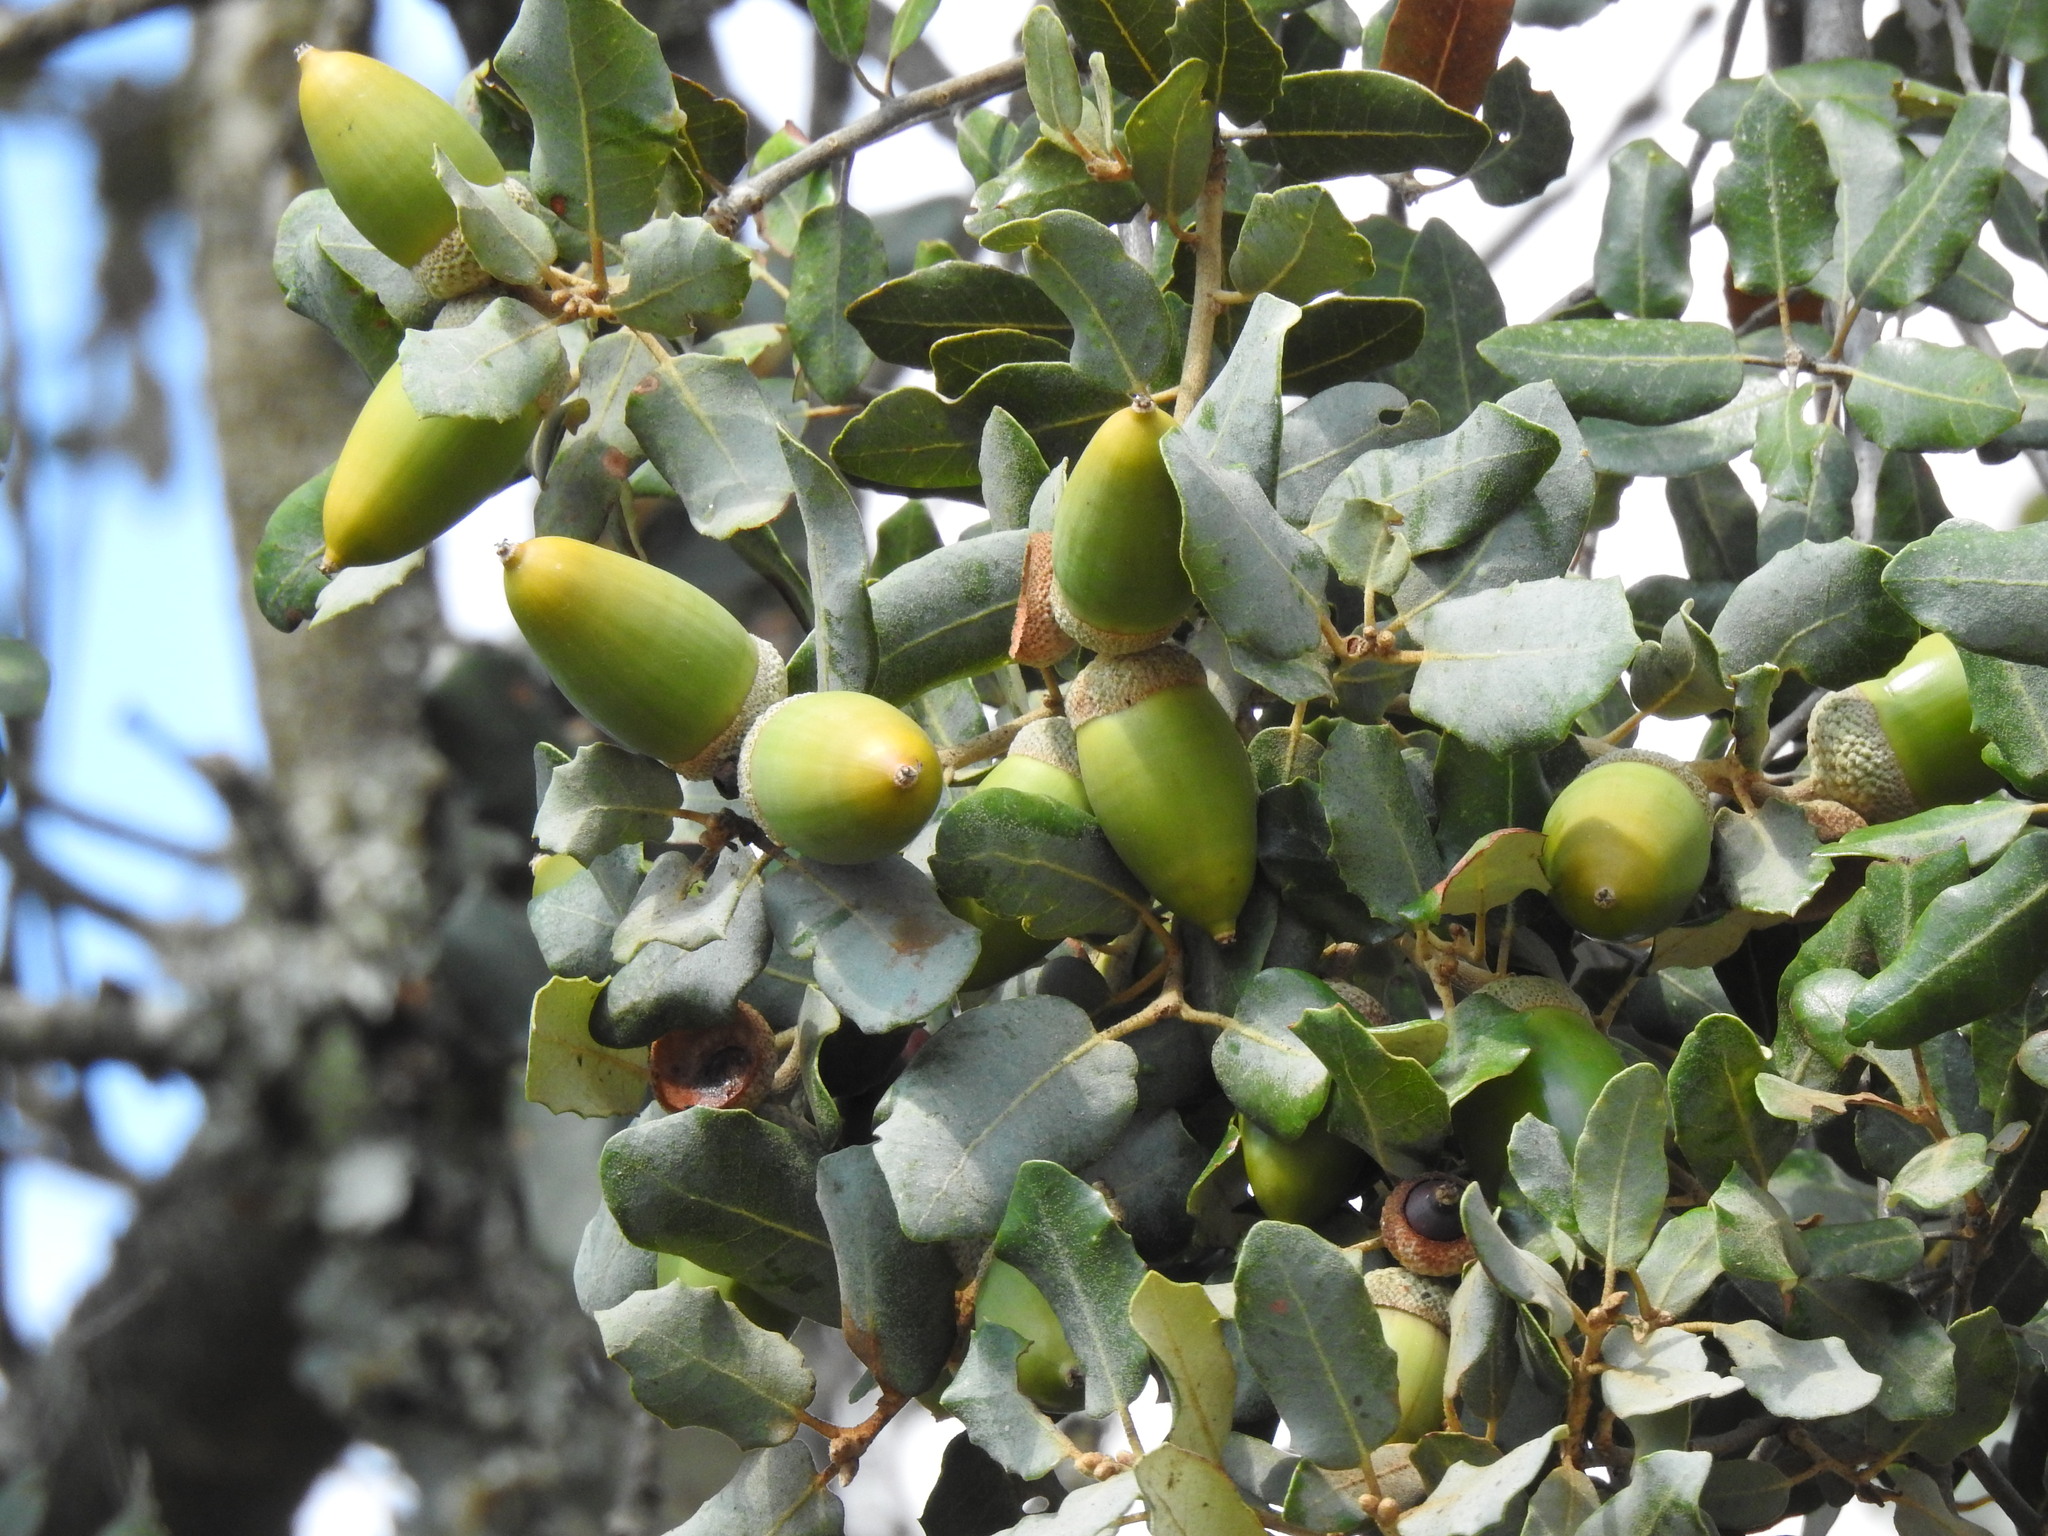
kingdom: Plantae
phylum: Tracheophyta
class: Magnoliopsida
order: Fagales
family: Fagaceae
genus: Quercus
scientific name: Quercus rotundifolia
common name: Holm oak
